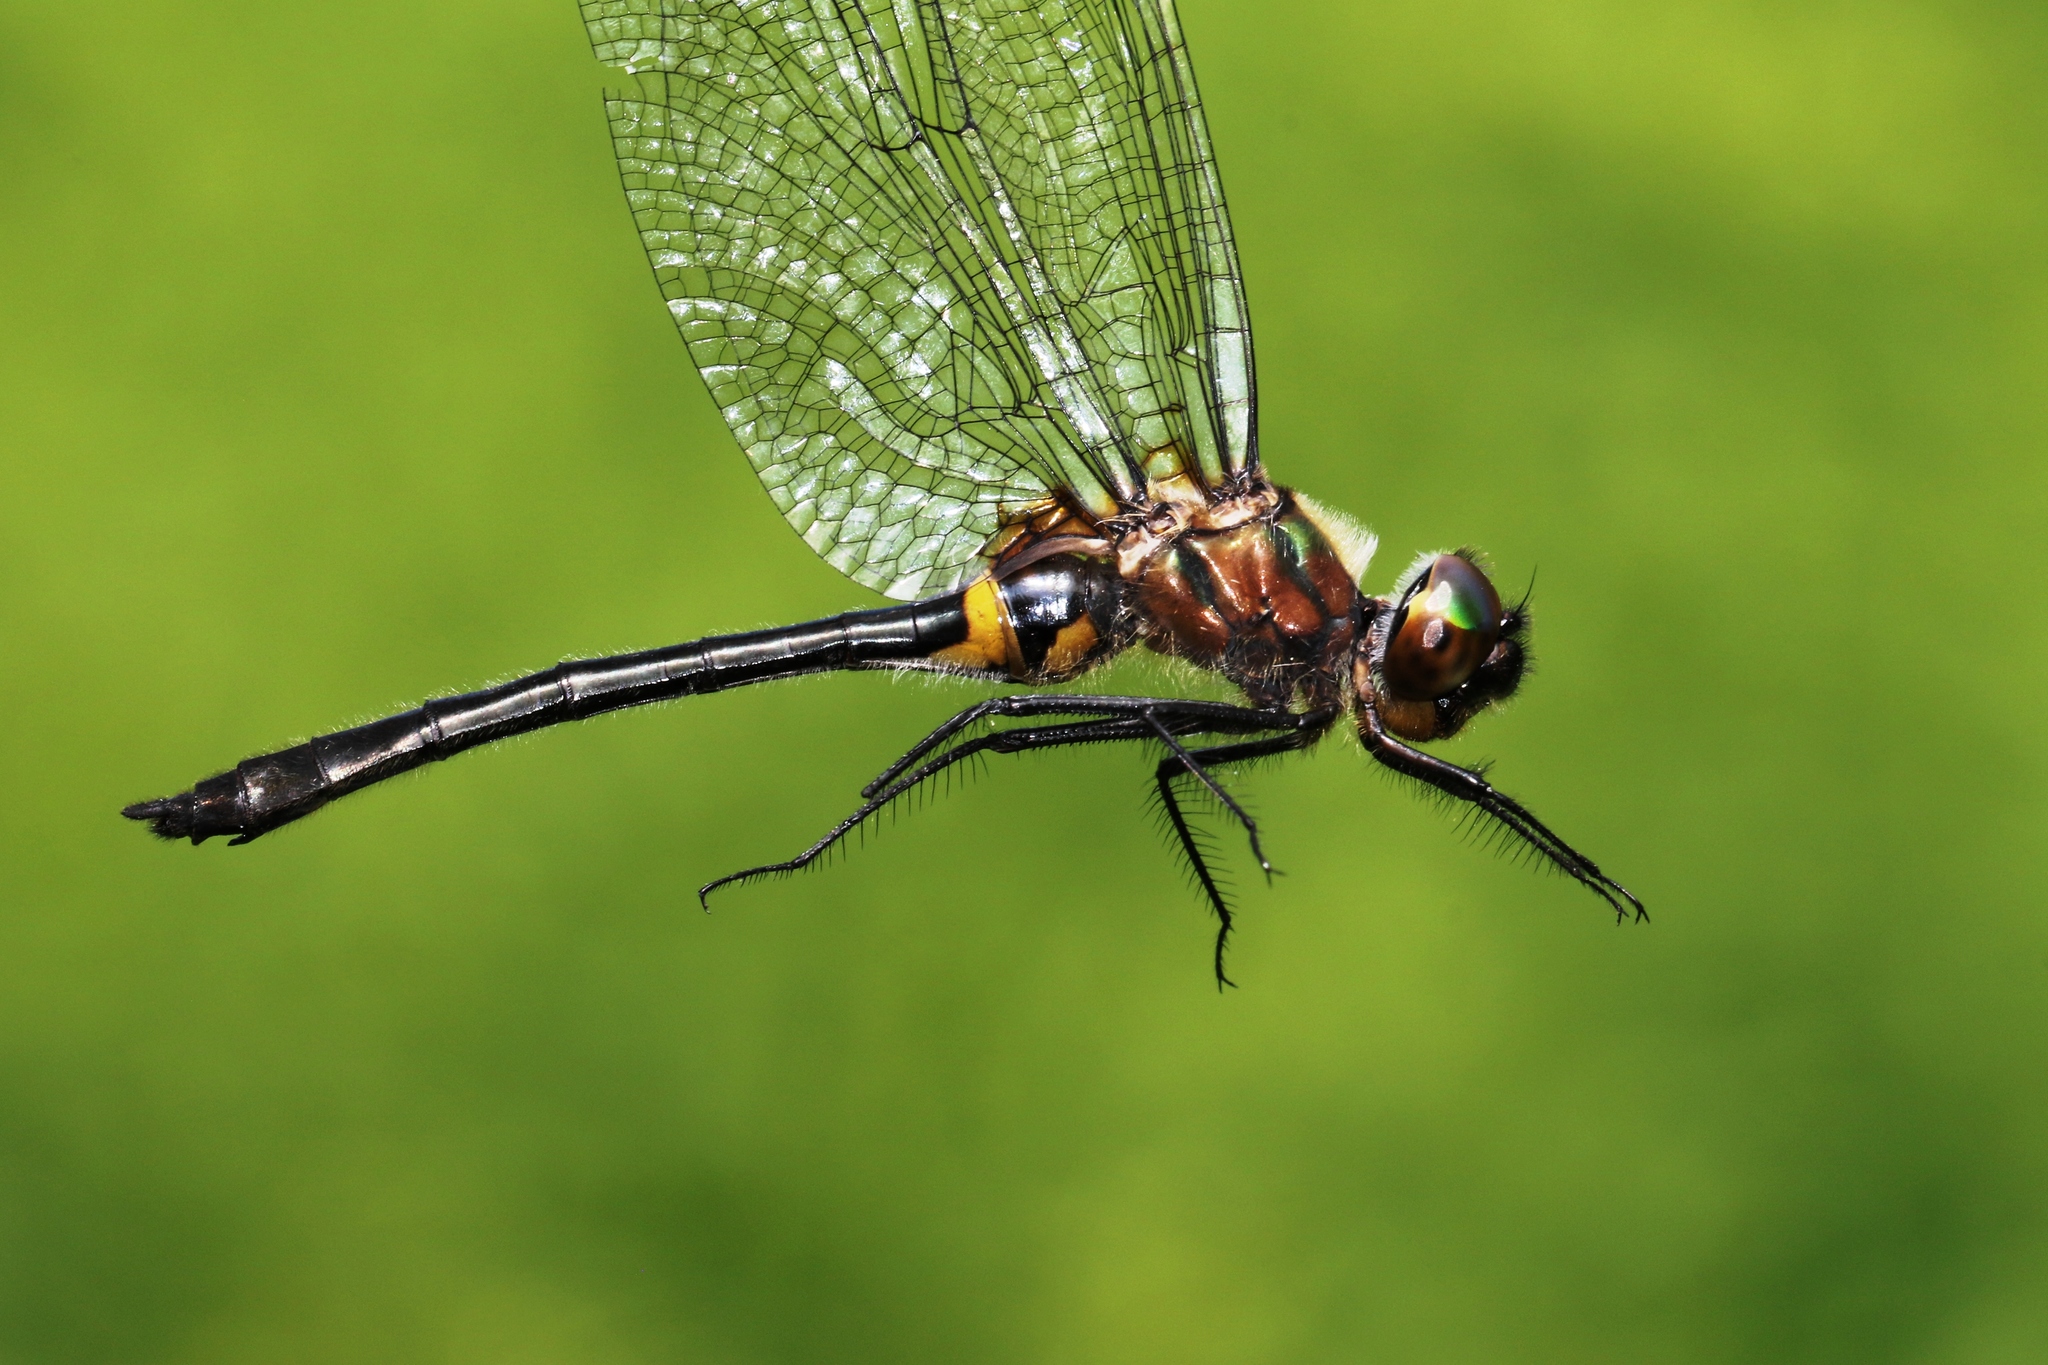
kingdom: Animalia
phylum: Arthropoda
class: Insecta
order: Odonata
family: Corduliidae
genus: Dorocordulia
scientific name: Dorocordulia libera
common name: Racket-tailed emerald
